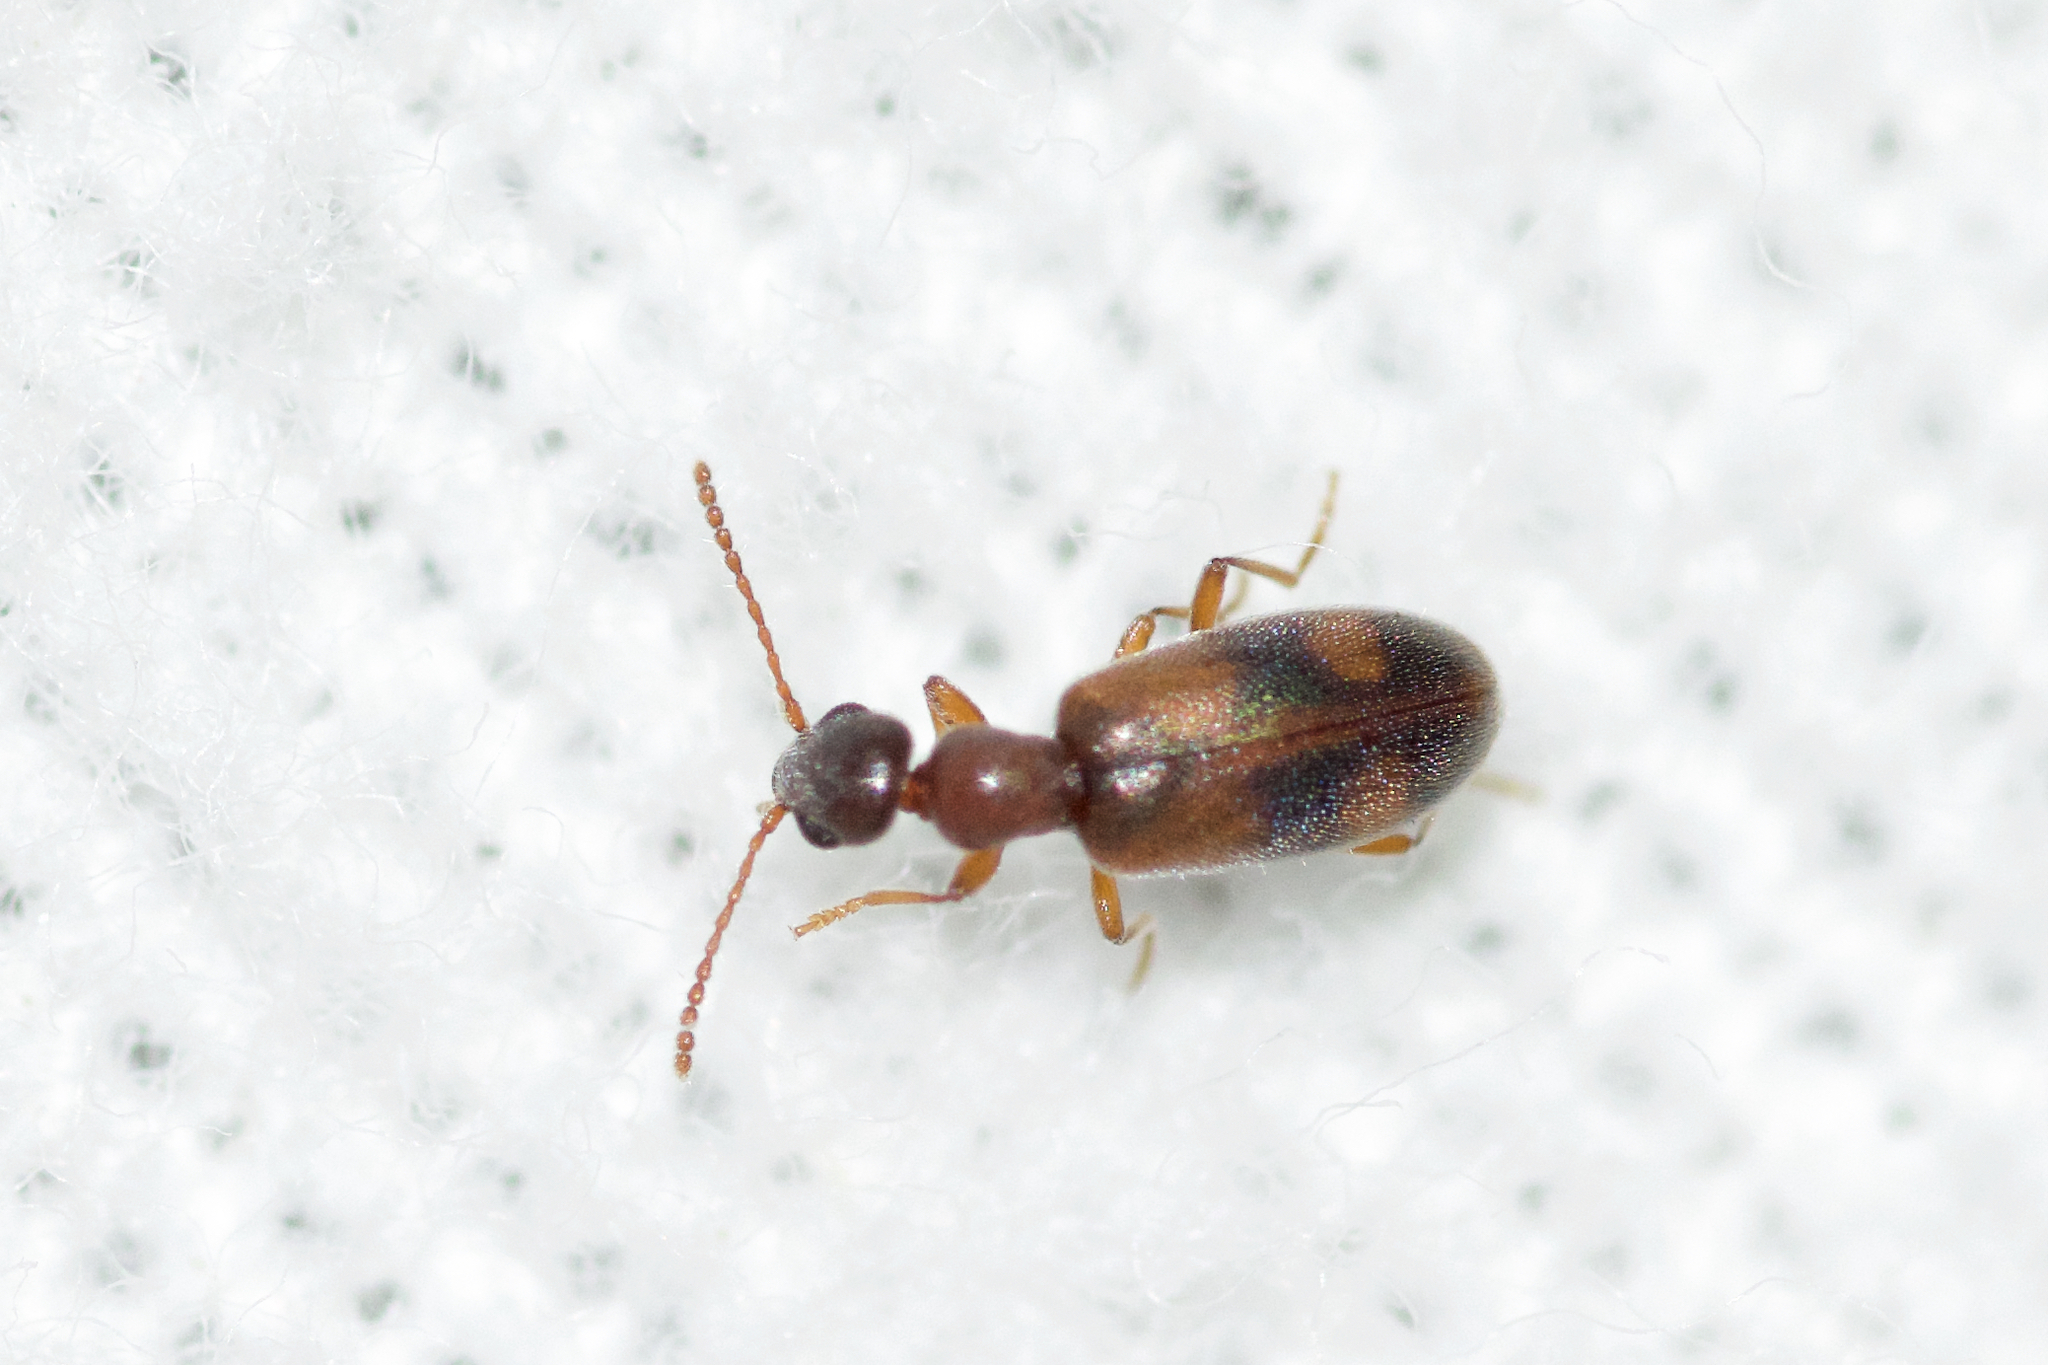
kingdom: Animalia
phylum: Arthropoda
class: Insecta
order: Coleoptera
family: Anthicidae
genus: Anthicus
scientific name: Anthicus cervinus
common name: Cloudy flower beetle
